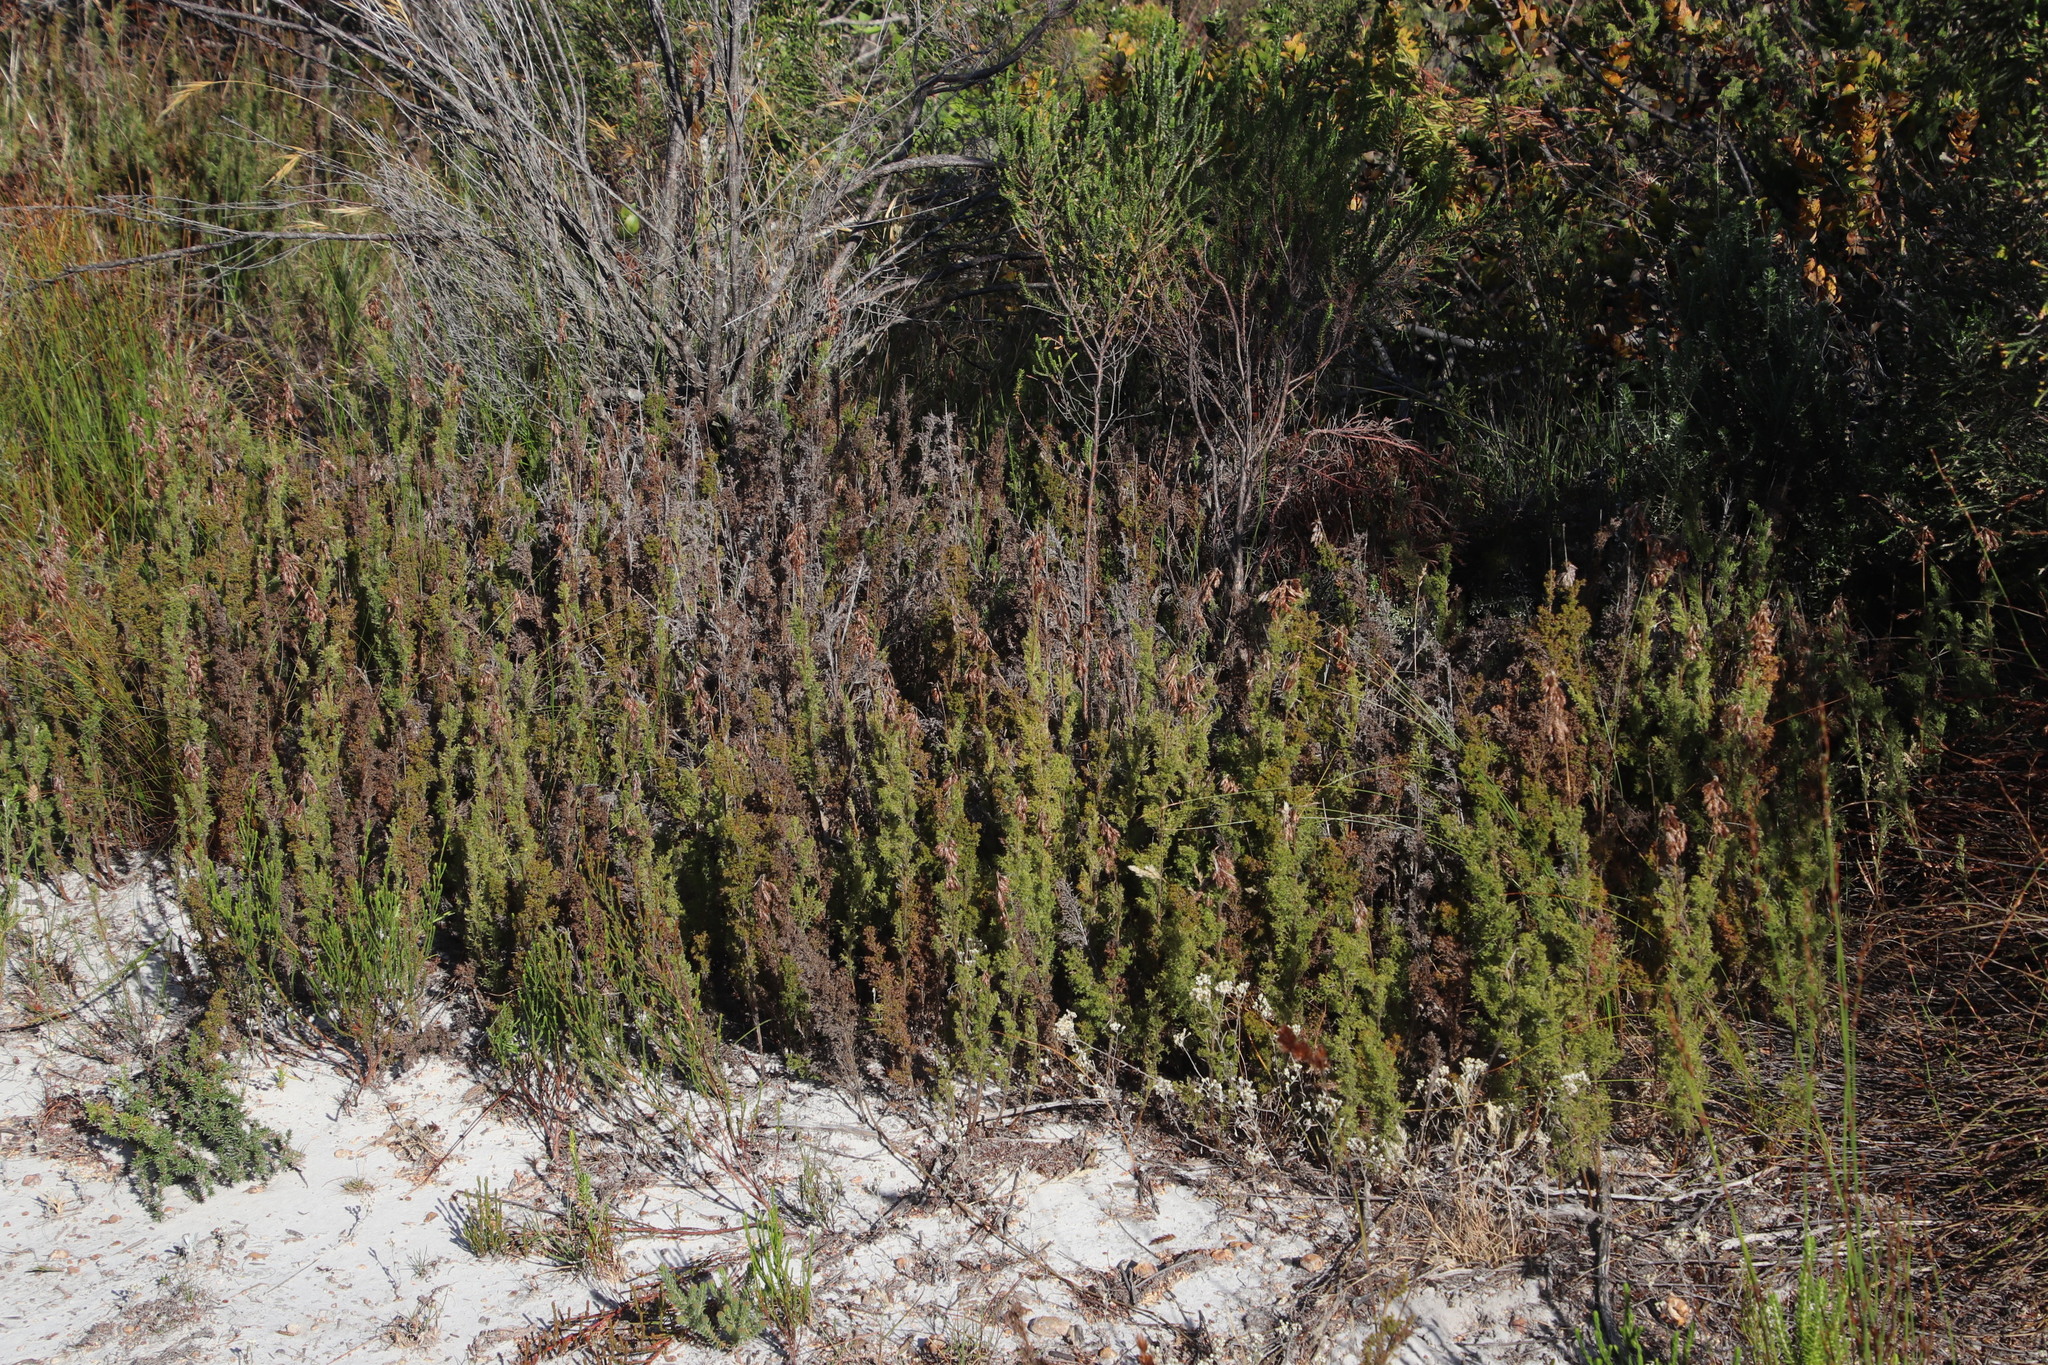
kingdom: Plantae
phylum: Tracheophyta
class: Liliopsida
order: Poales
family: Restionaceae
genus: Thamnochortus
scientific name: Thamnochortus fruticosus
